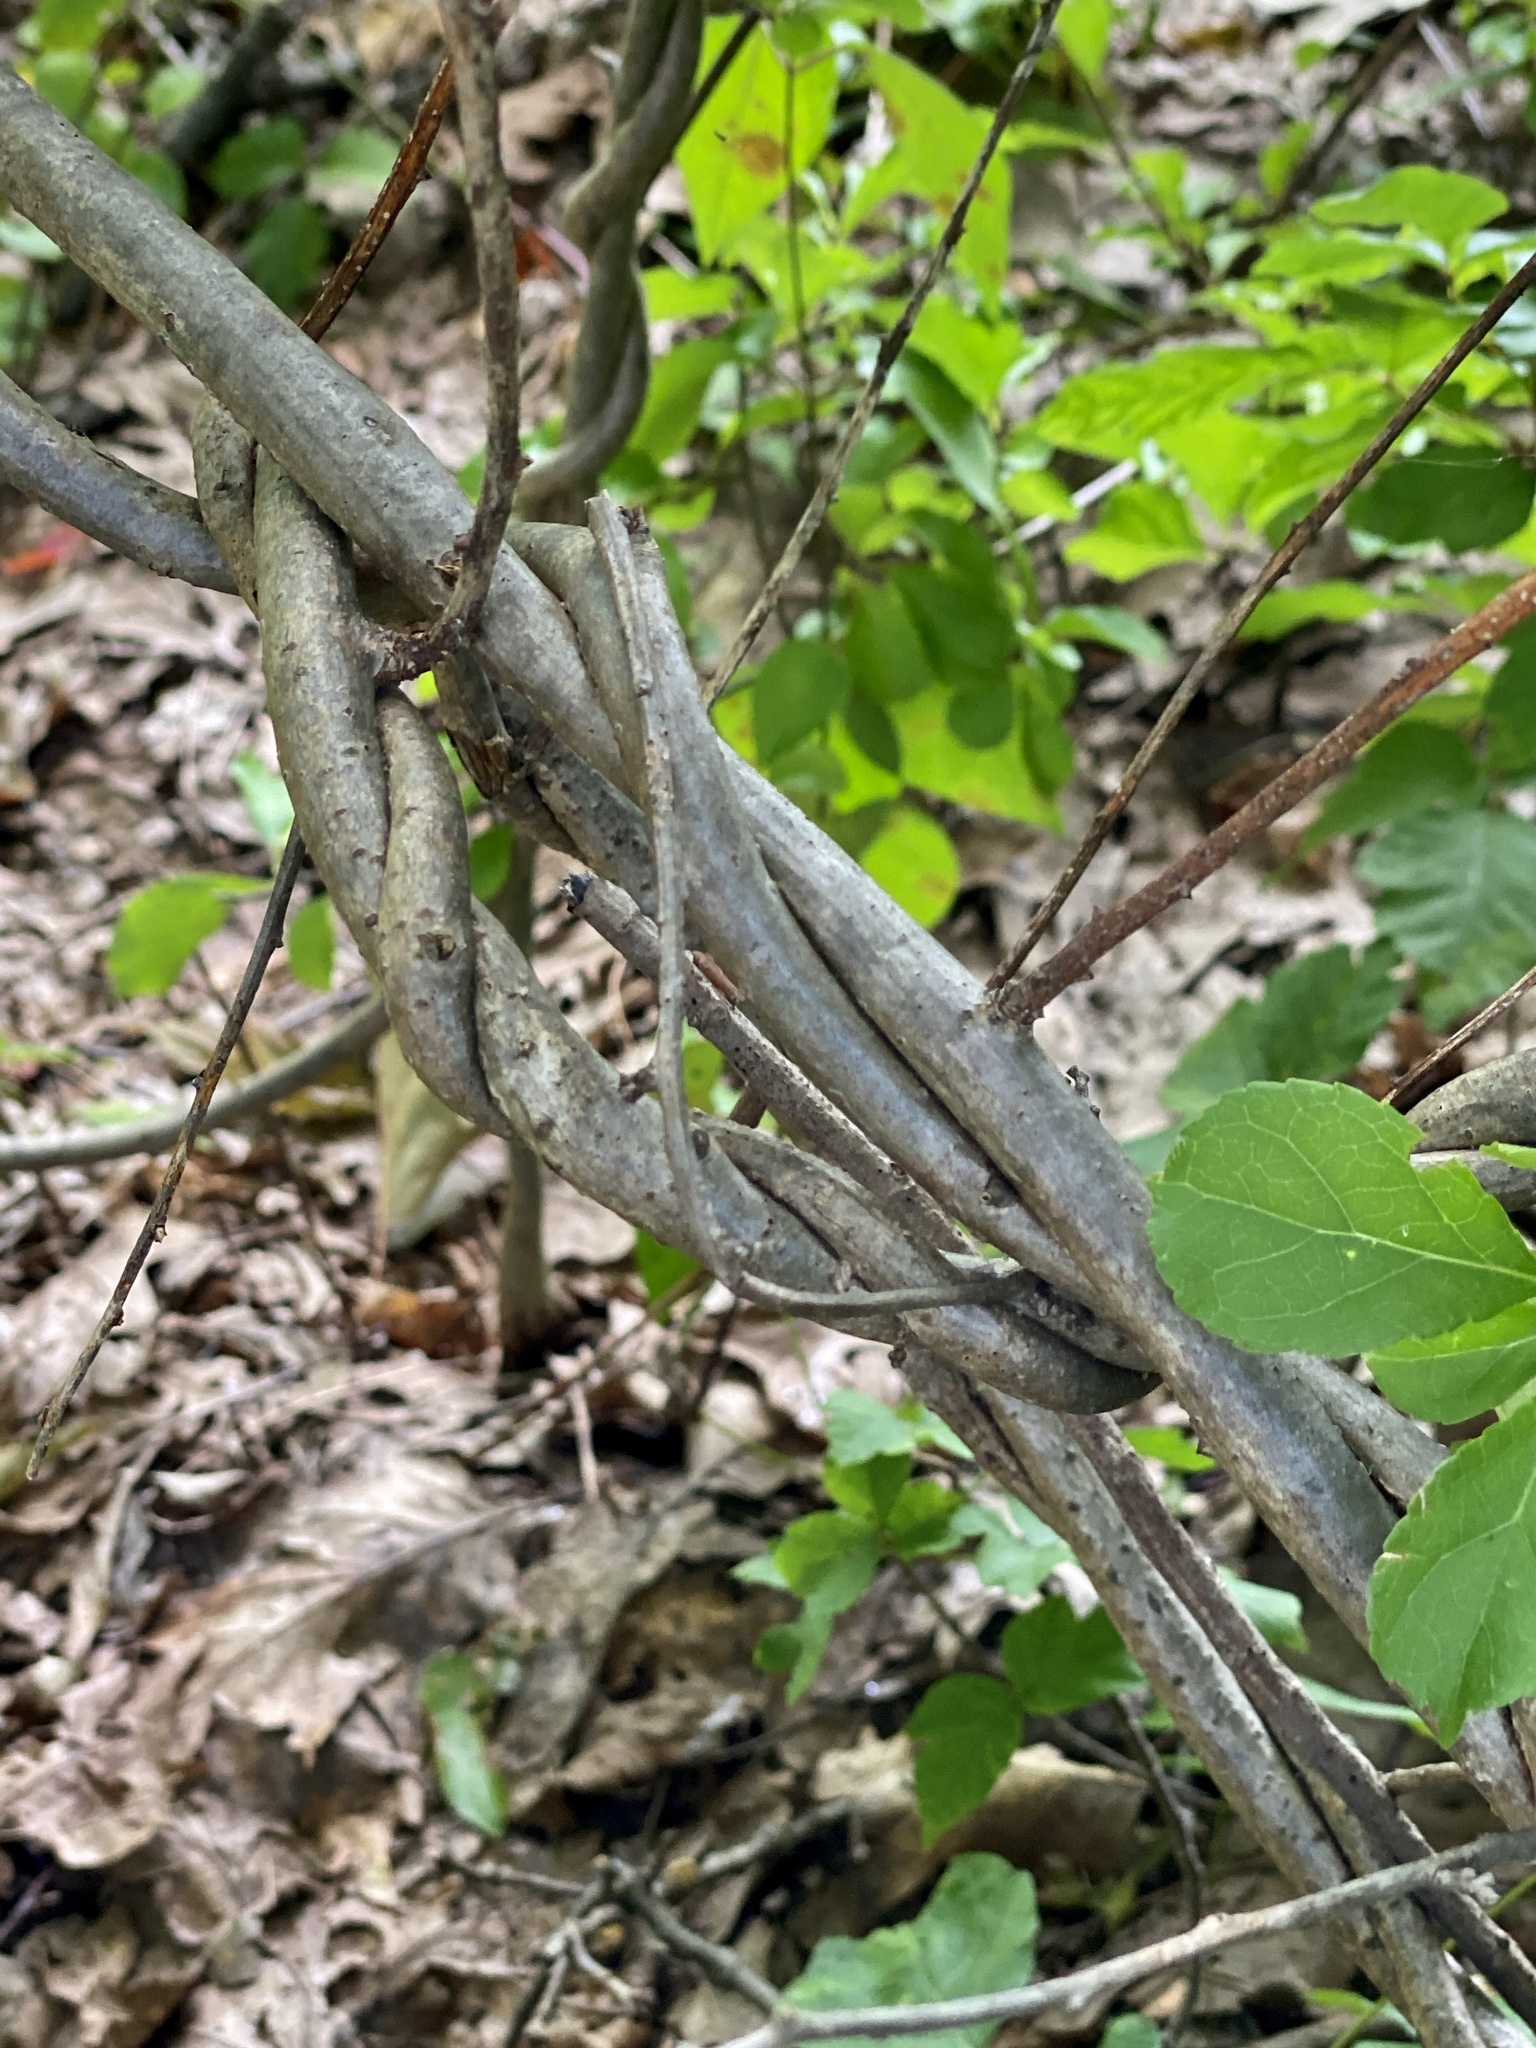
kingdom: Plantae
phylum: Tracheophyta
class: Magnoliopsida
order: Celastrales
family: Celastraceae
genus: Celastrus
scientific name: Celastrus orbiculatus
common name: Oriental bittersweet
